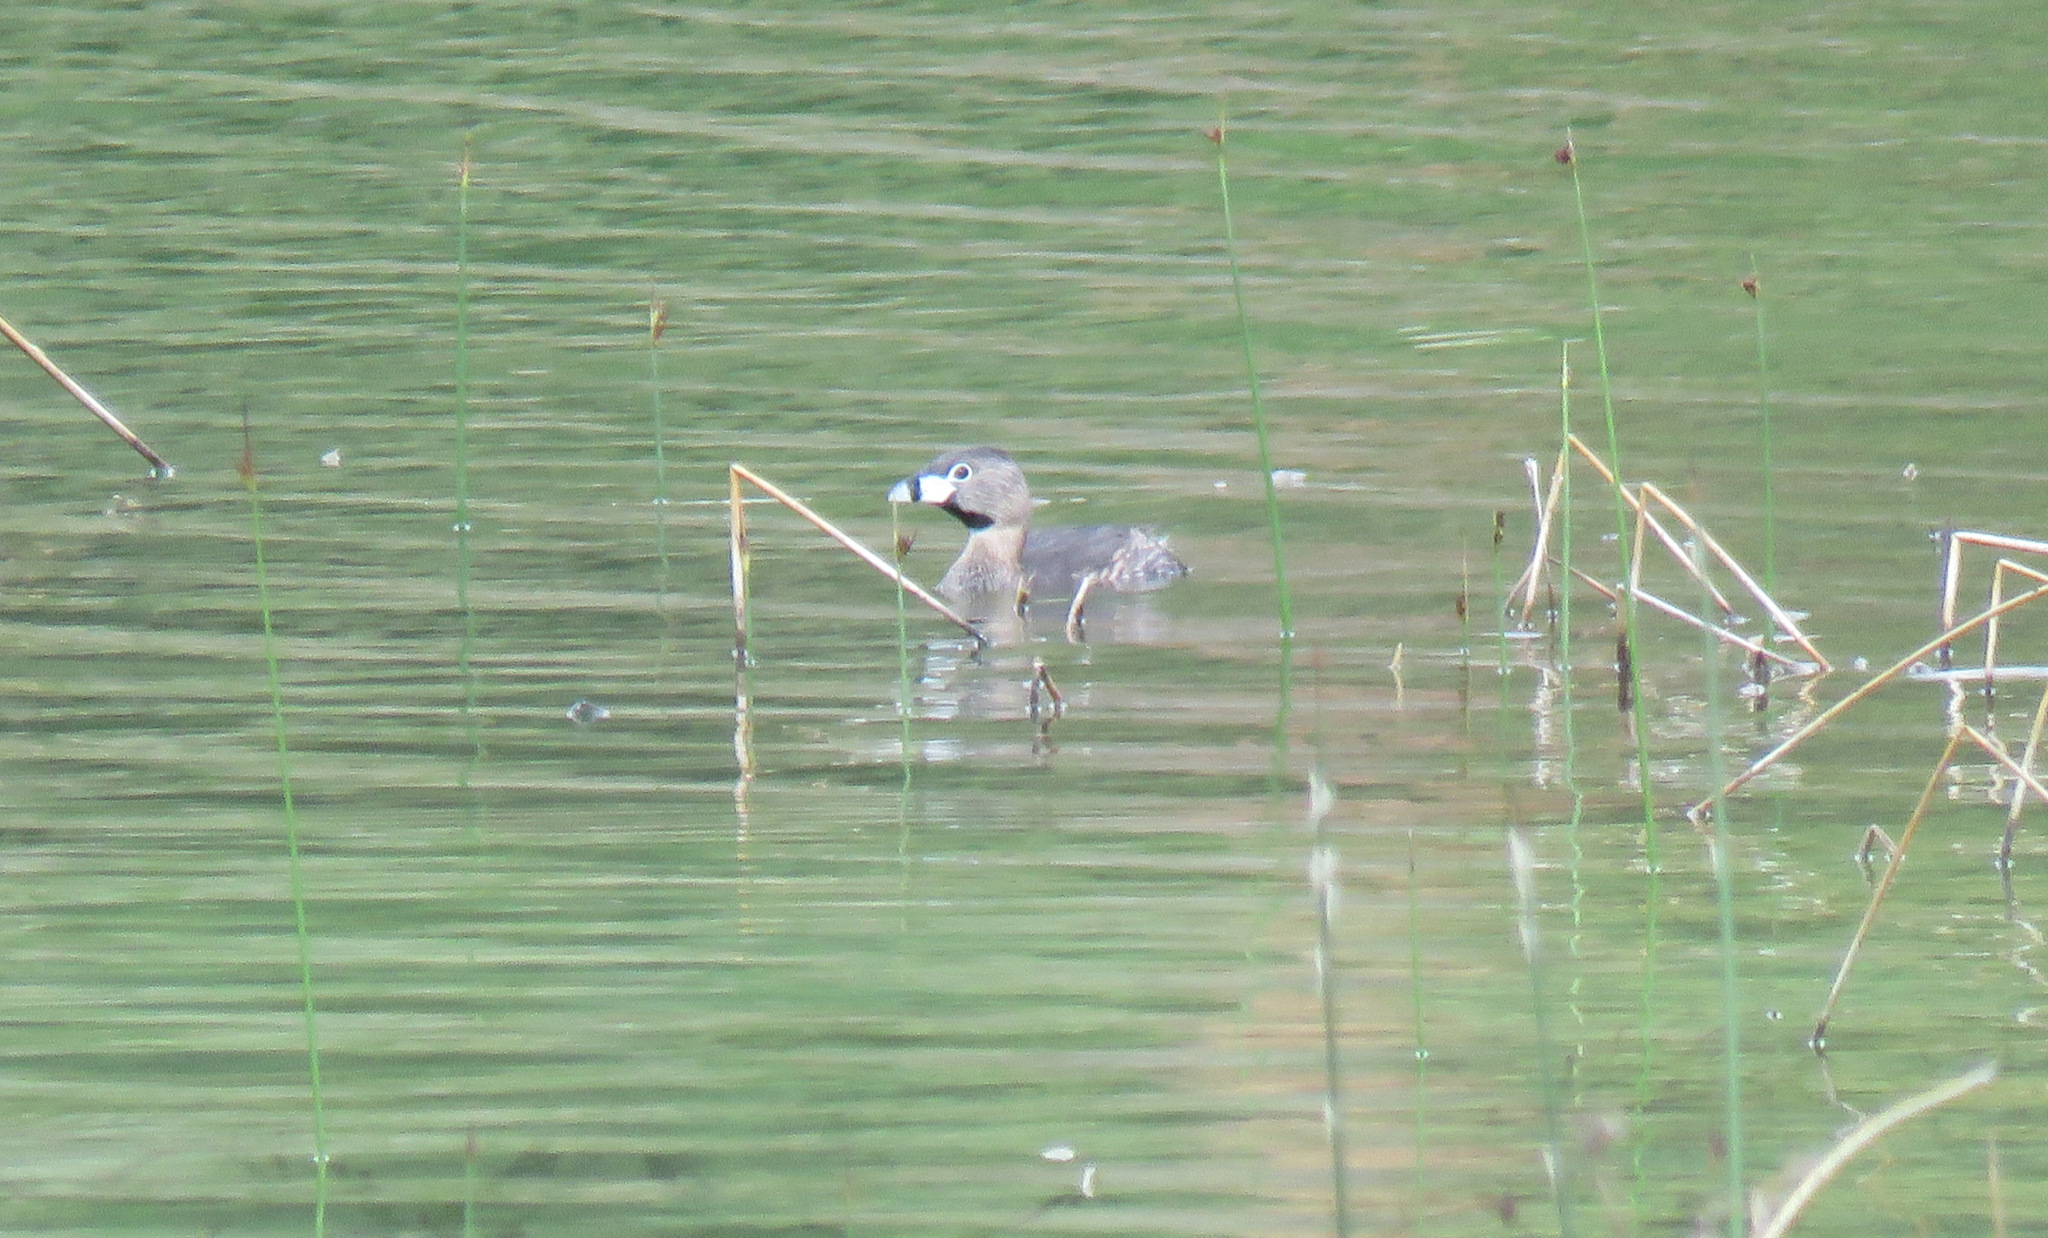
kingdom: Animalia
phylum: Chordata
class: Aves
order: Podicipediformes
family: Podicipedidae
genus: Podilymbus
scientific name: Podilymbus podiceps
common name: Pied-billed grebe
